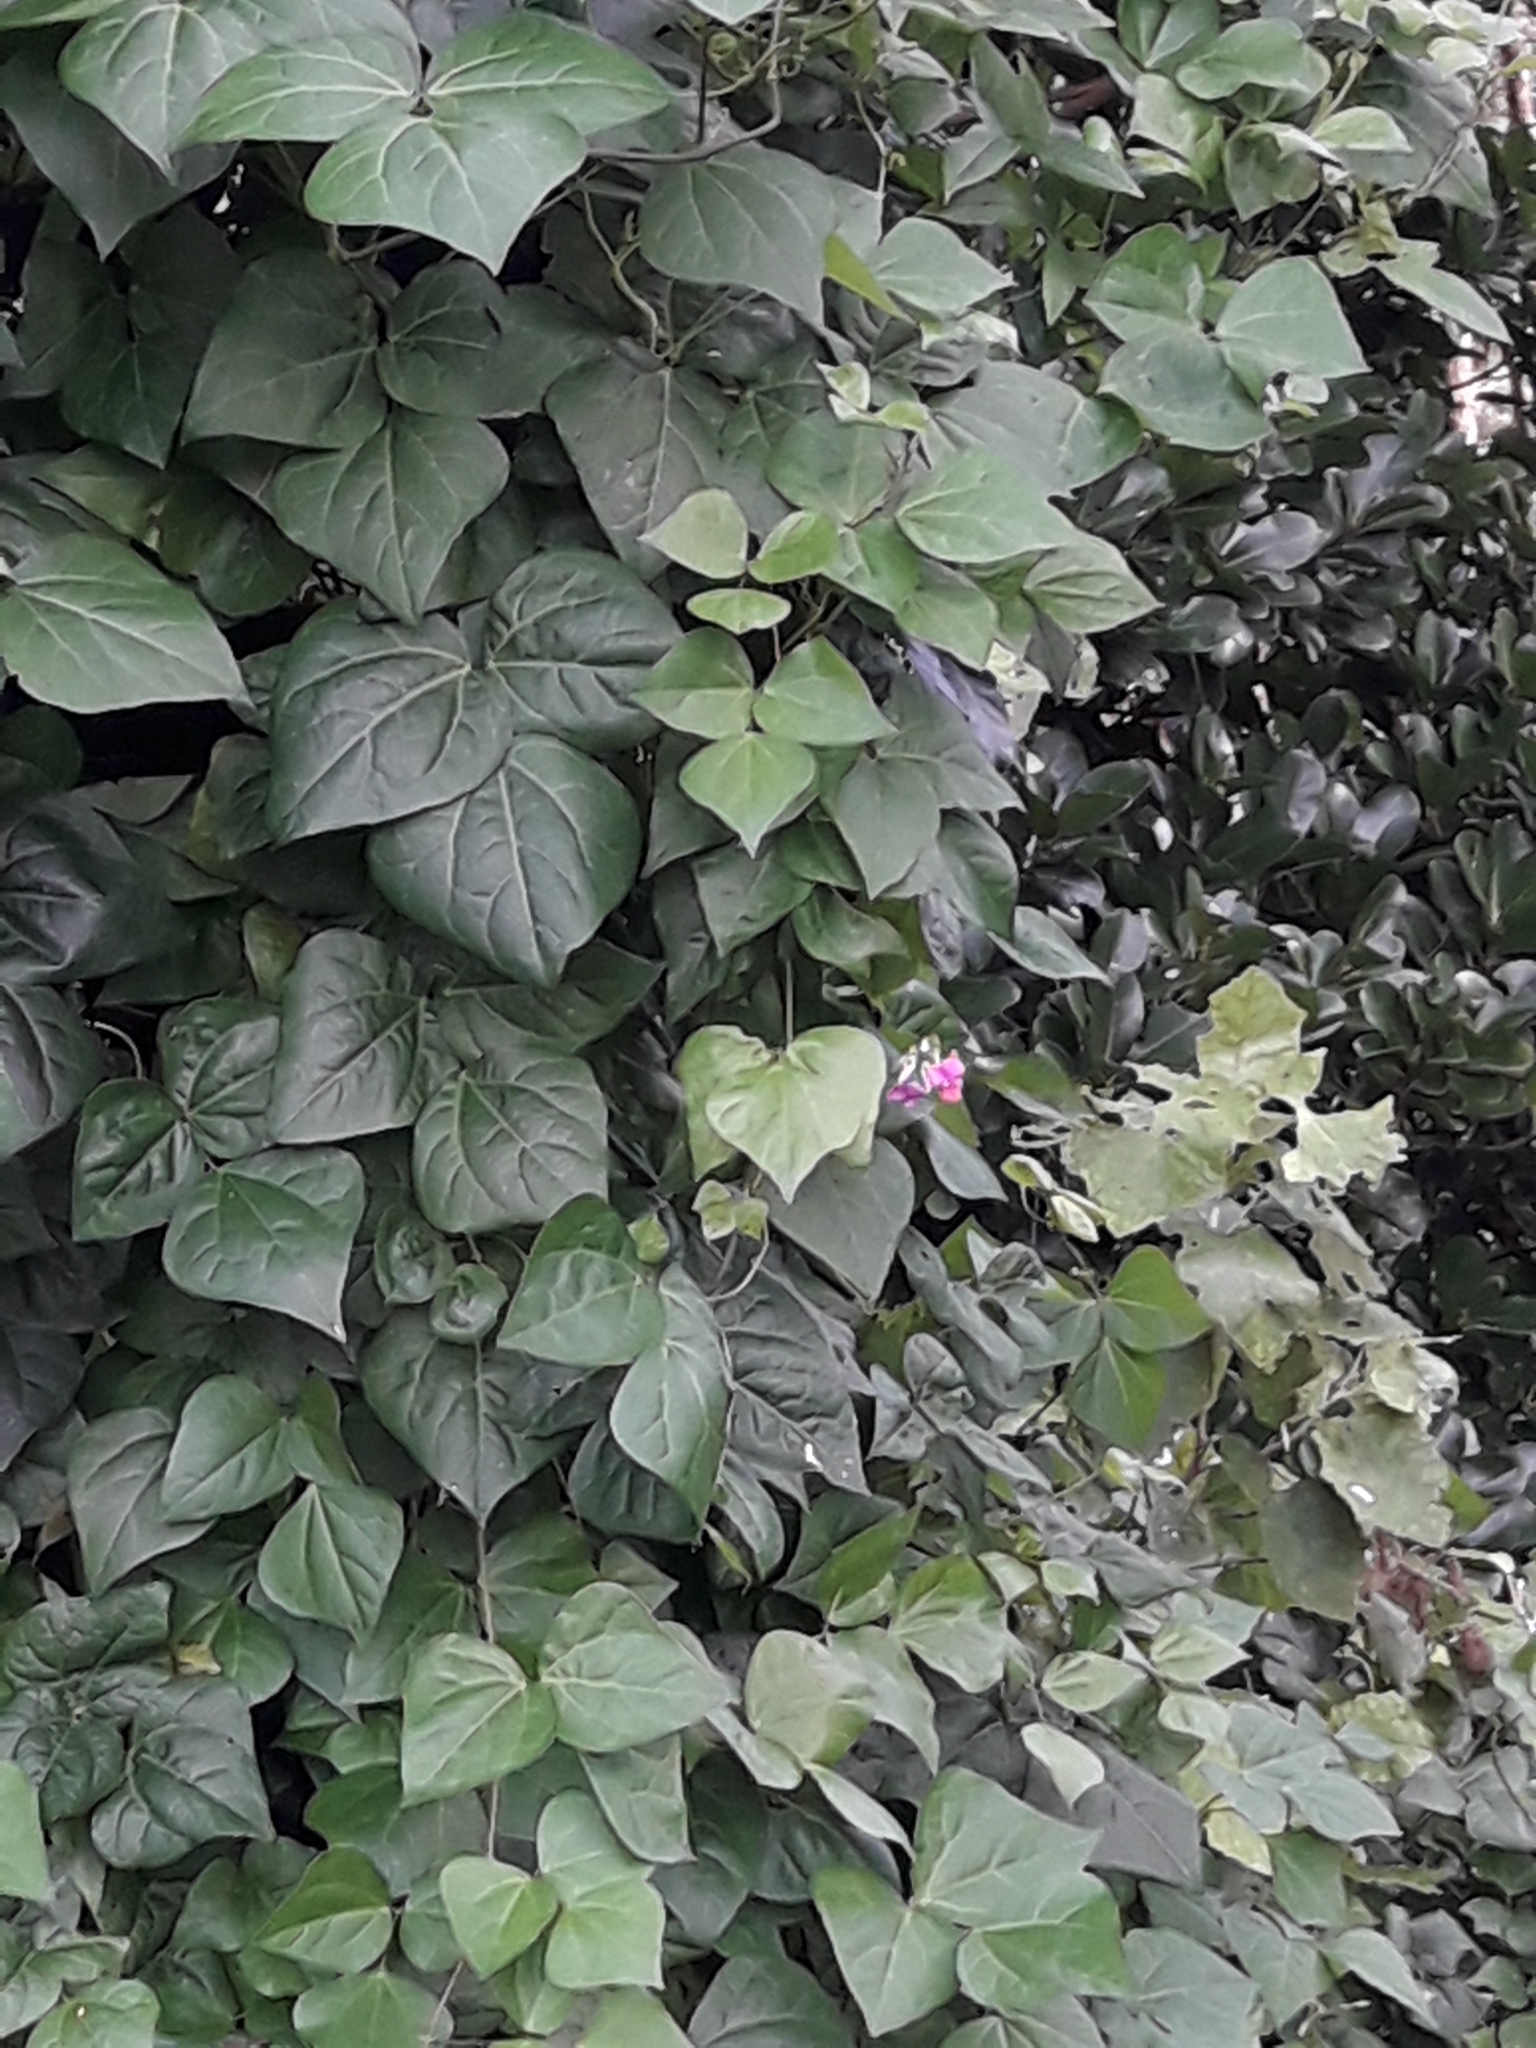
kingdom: Plantae
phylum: Tracheophyta
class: Magnoliopsida
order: Fabales
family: Fabaceae
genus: Dipogon
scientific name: Dipogon lignosus
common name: Okie bean
